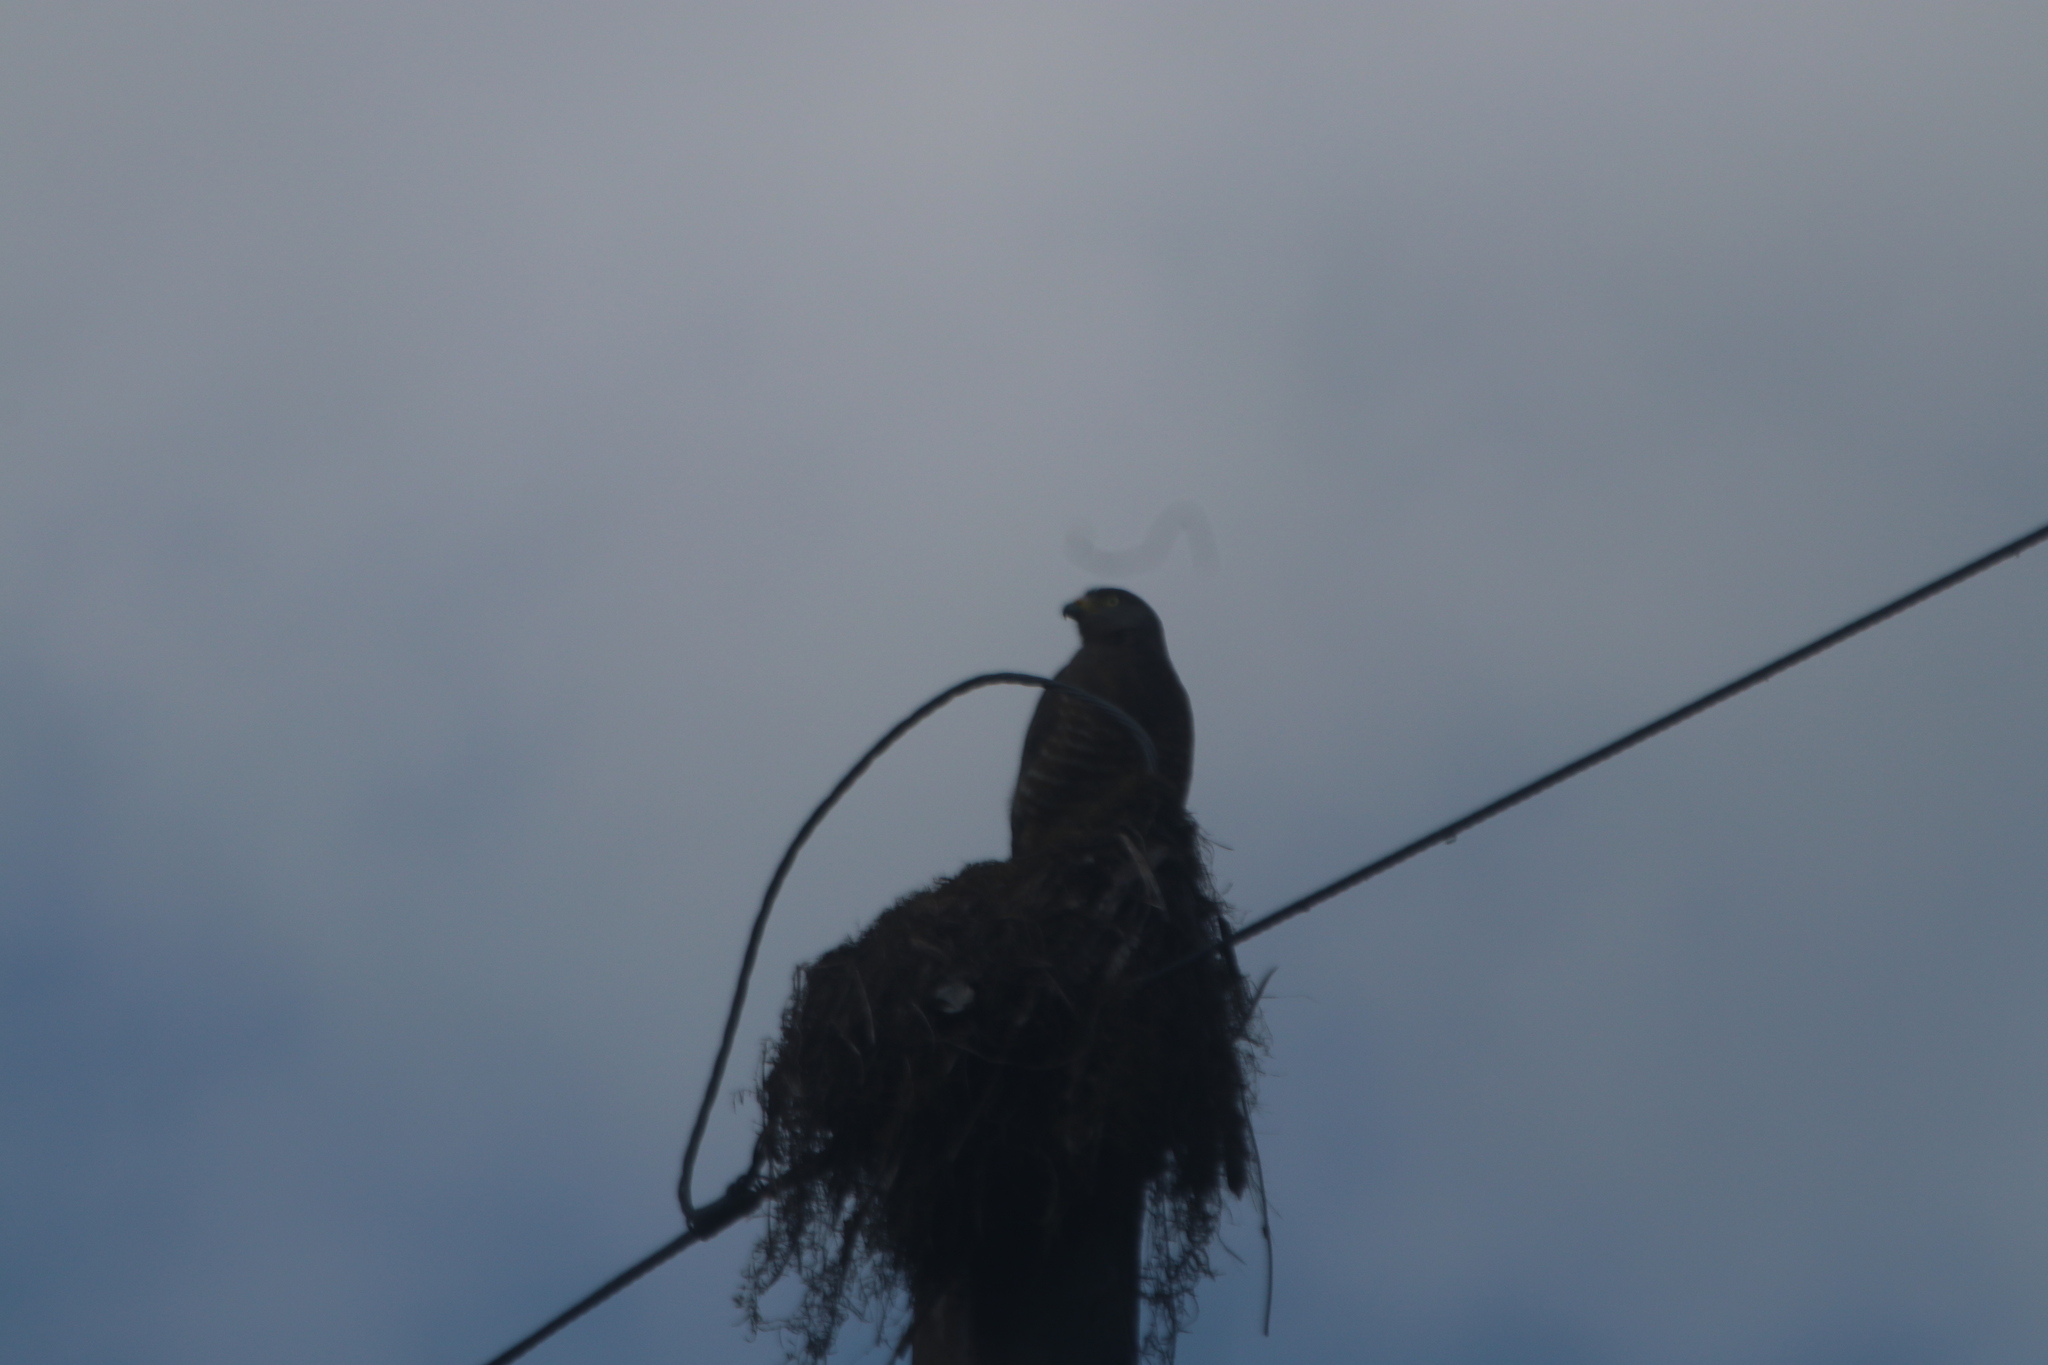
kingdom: Animalia
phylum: Chordata
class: Aves
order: Accipitriformes
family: Accipitridae
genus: Rupornis
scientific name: Rupornis magnirostris
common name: Roadside hawk
